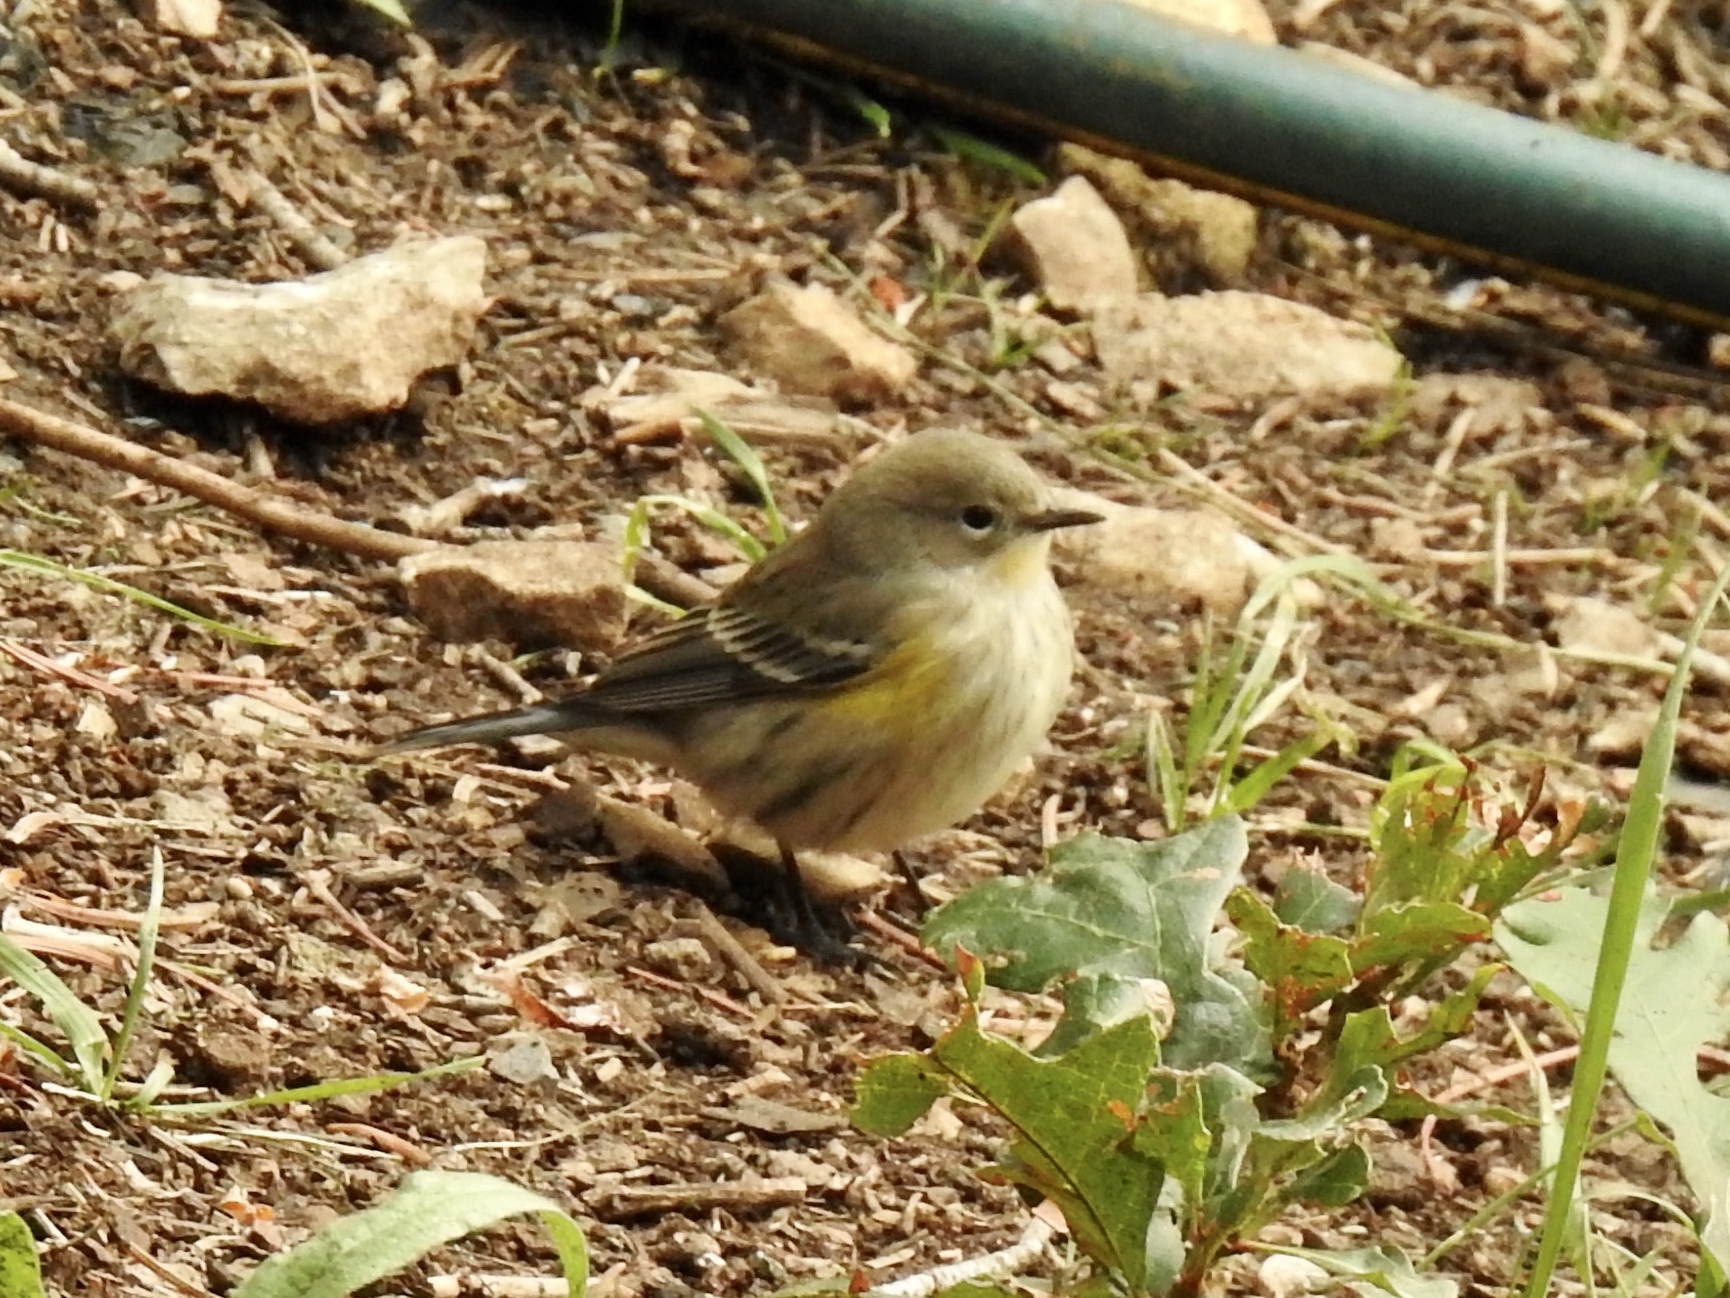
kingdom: Animalia
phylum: Chordata
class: Aves
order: Passeriformes
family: Parulidae
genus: Setophaga
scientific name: Setophaga coronata
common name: Myrtle warbler
